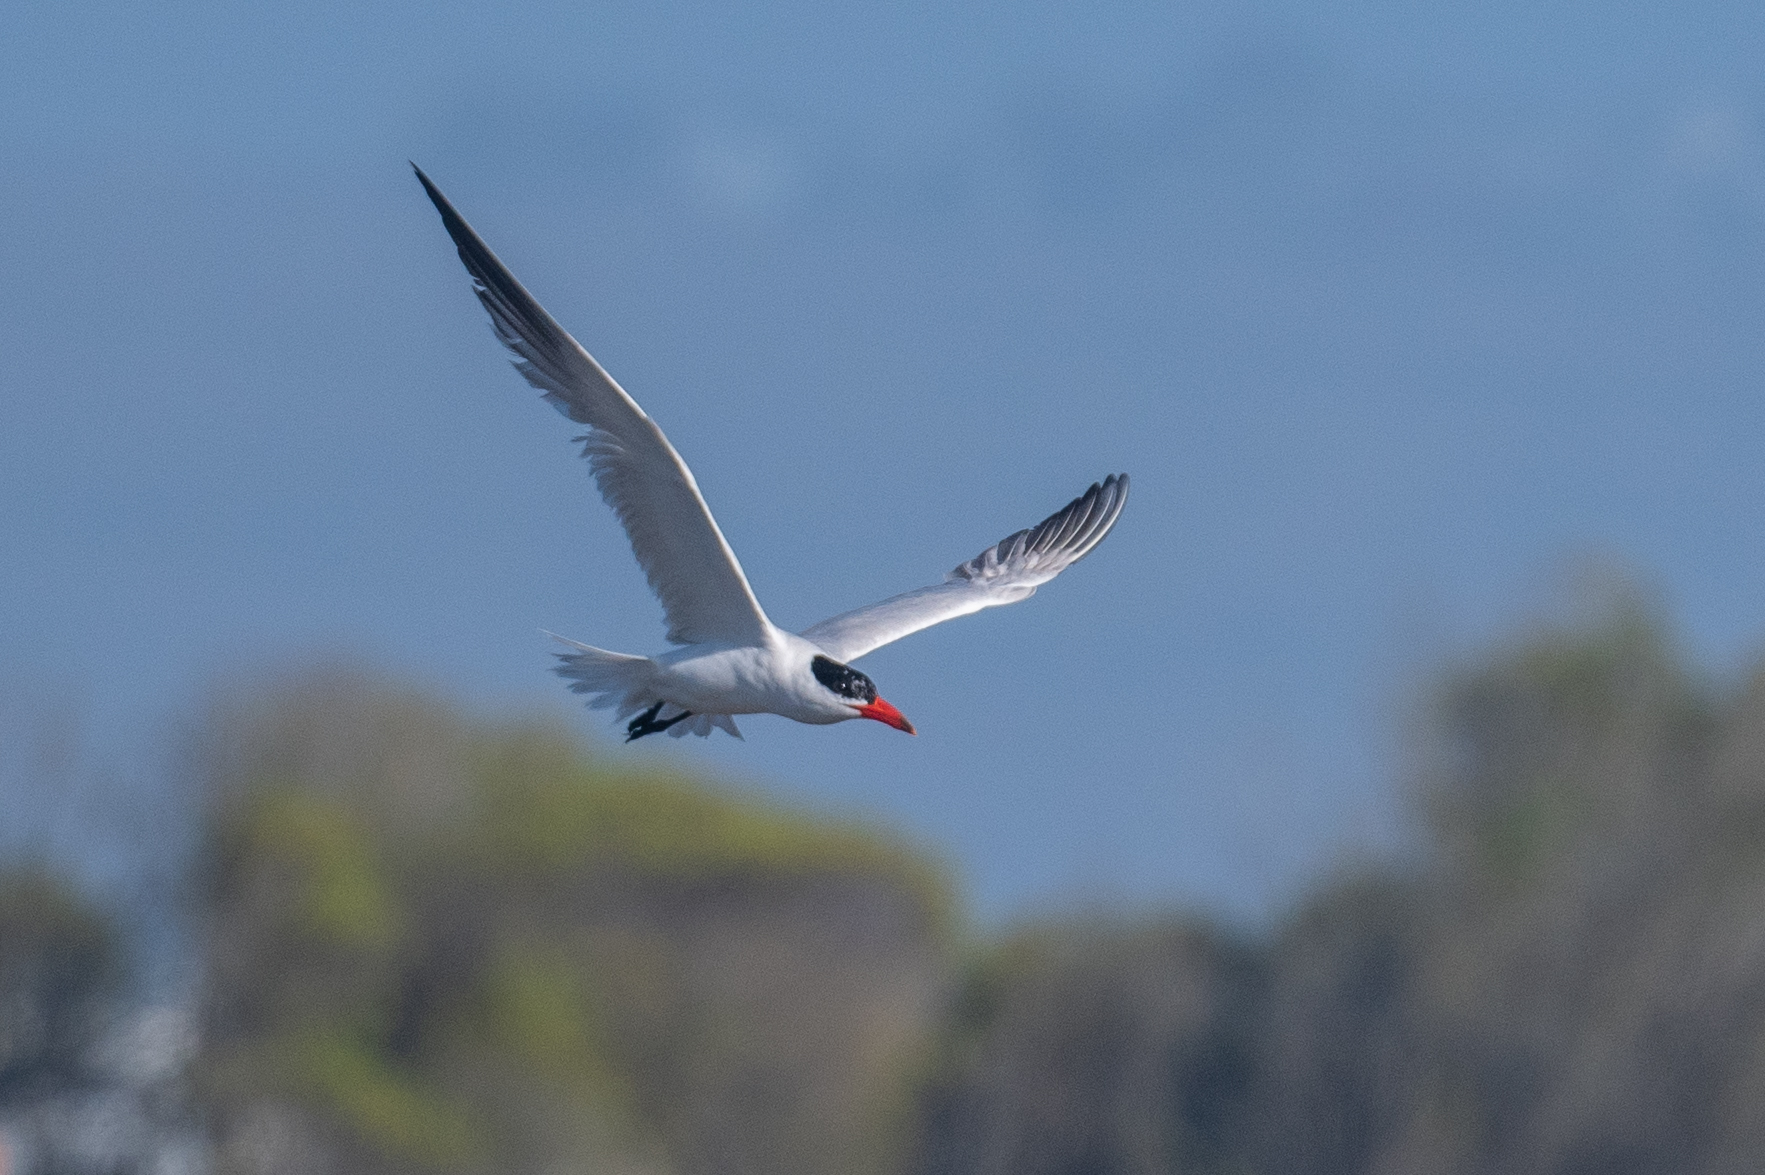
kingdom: Animalia
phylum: Chordata
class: Aves
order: Charadriiformes
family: Laridae
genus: Hydroprogne
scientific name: Hydroprogne caspia
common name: Caspian tern
